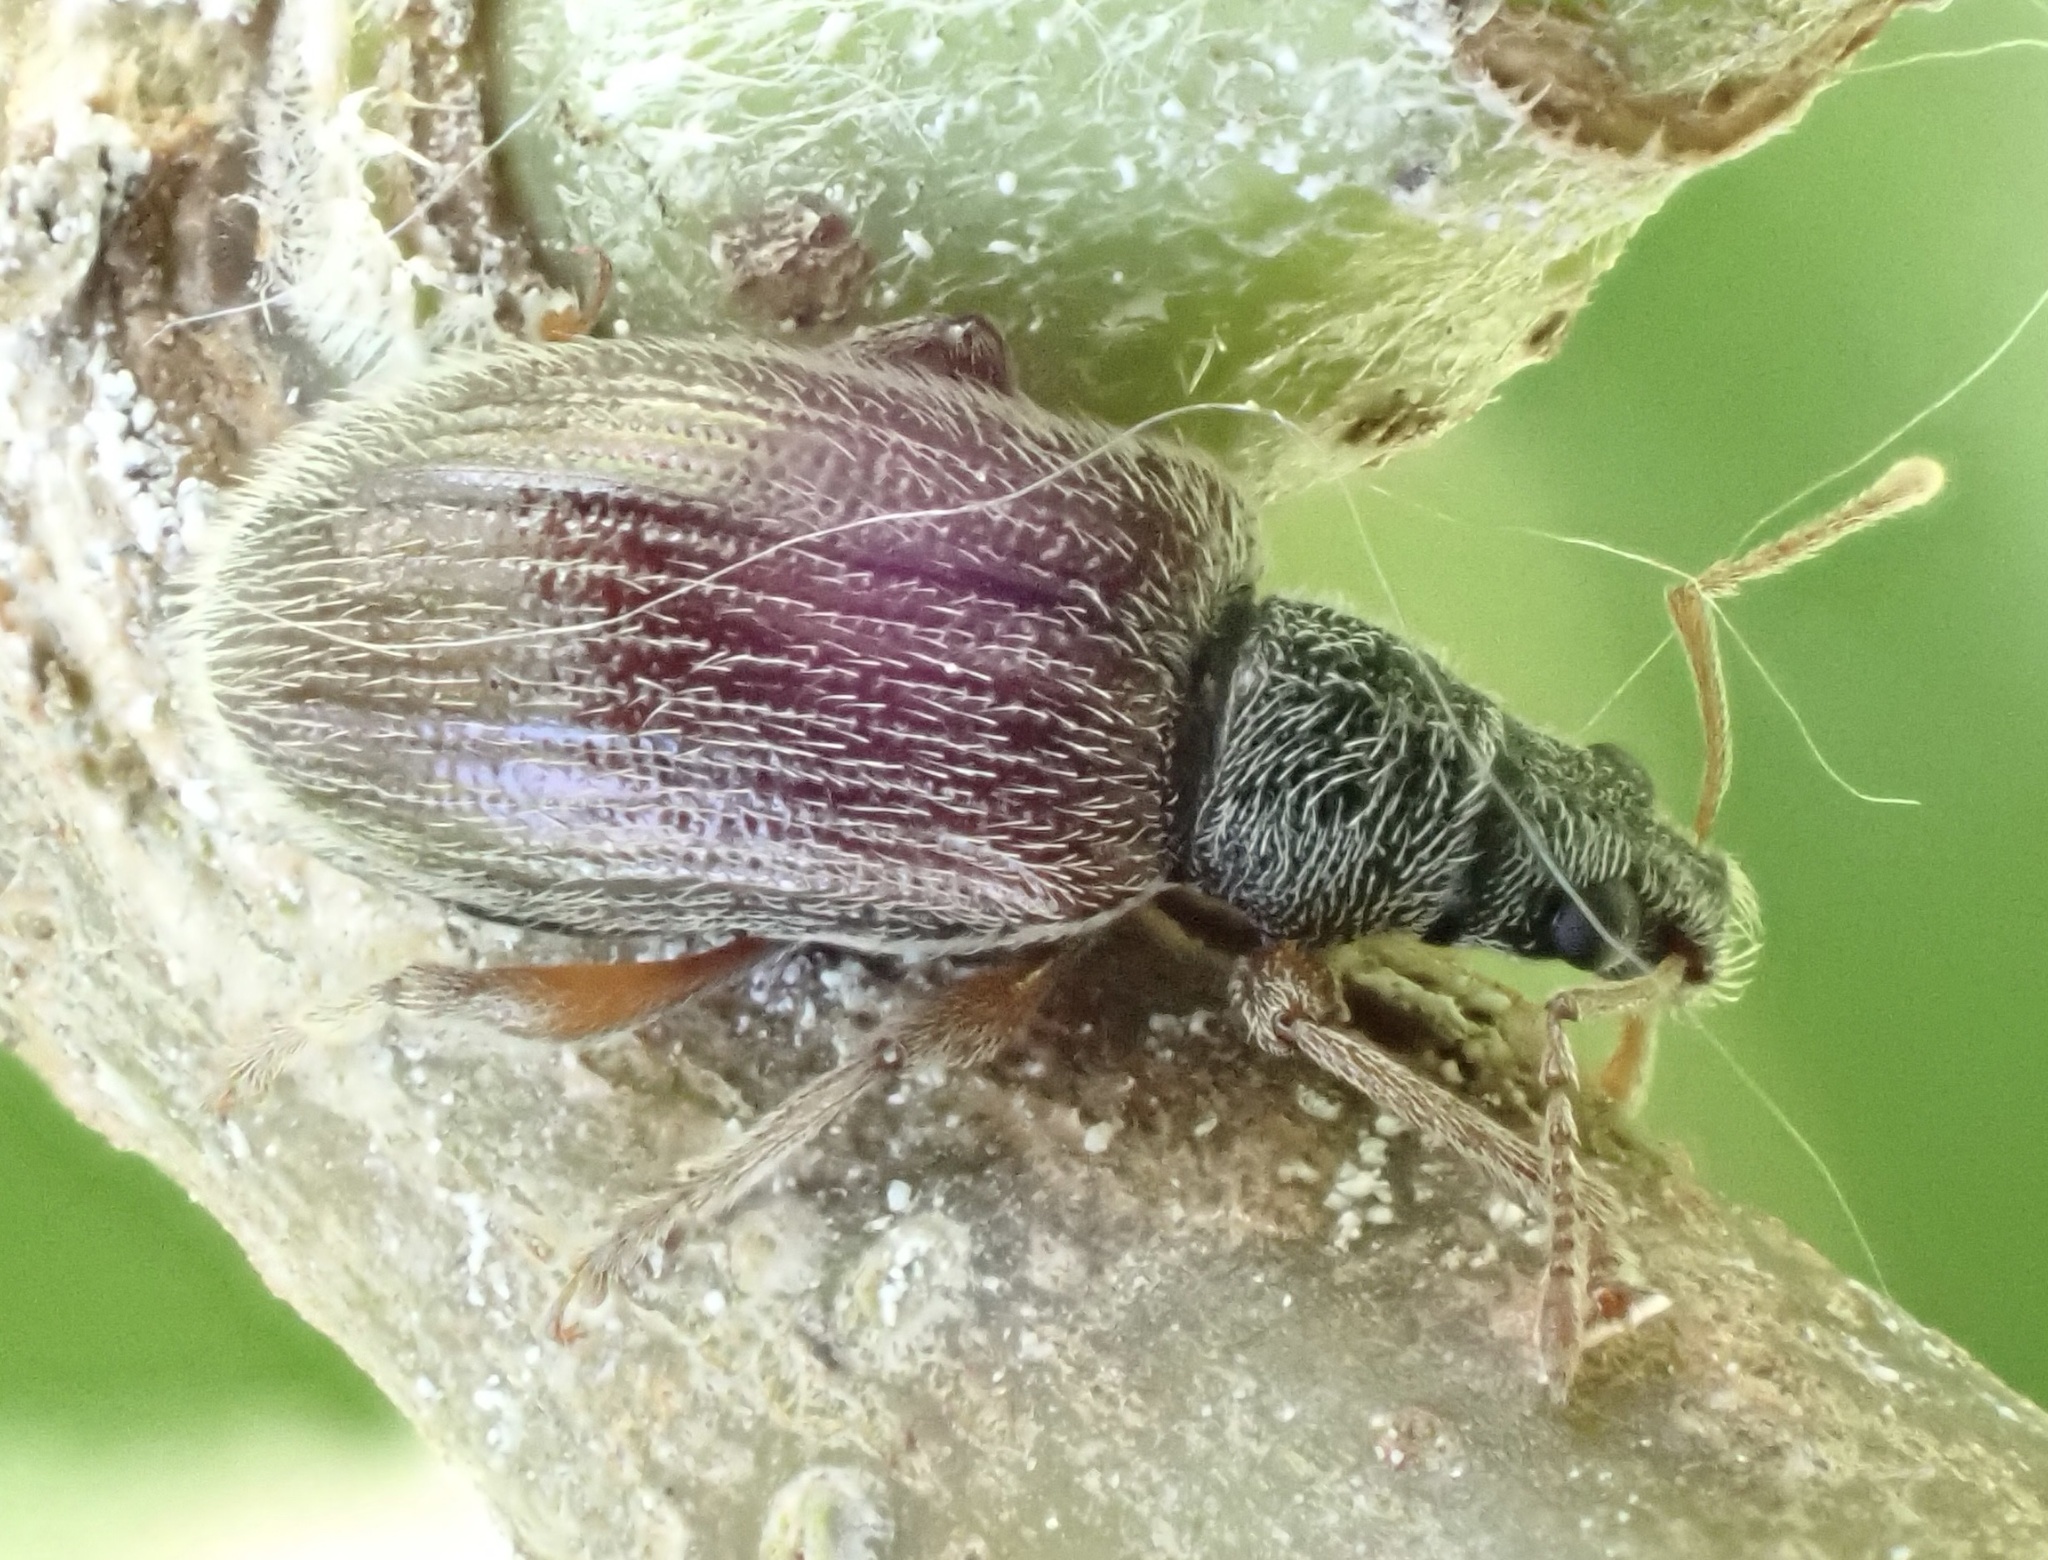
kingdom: Animalia
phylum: Arthropoda
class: Insecta
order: Coleoptera
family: Curculionidae
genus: Phyllobius
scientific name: Phyllobius oblongus
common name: Brown leaf weevil
